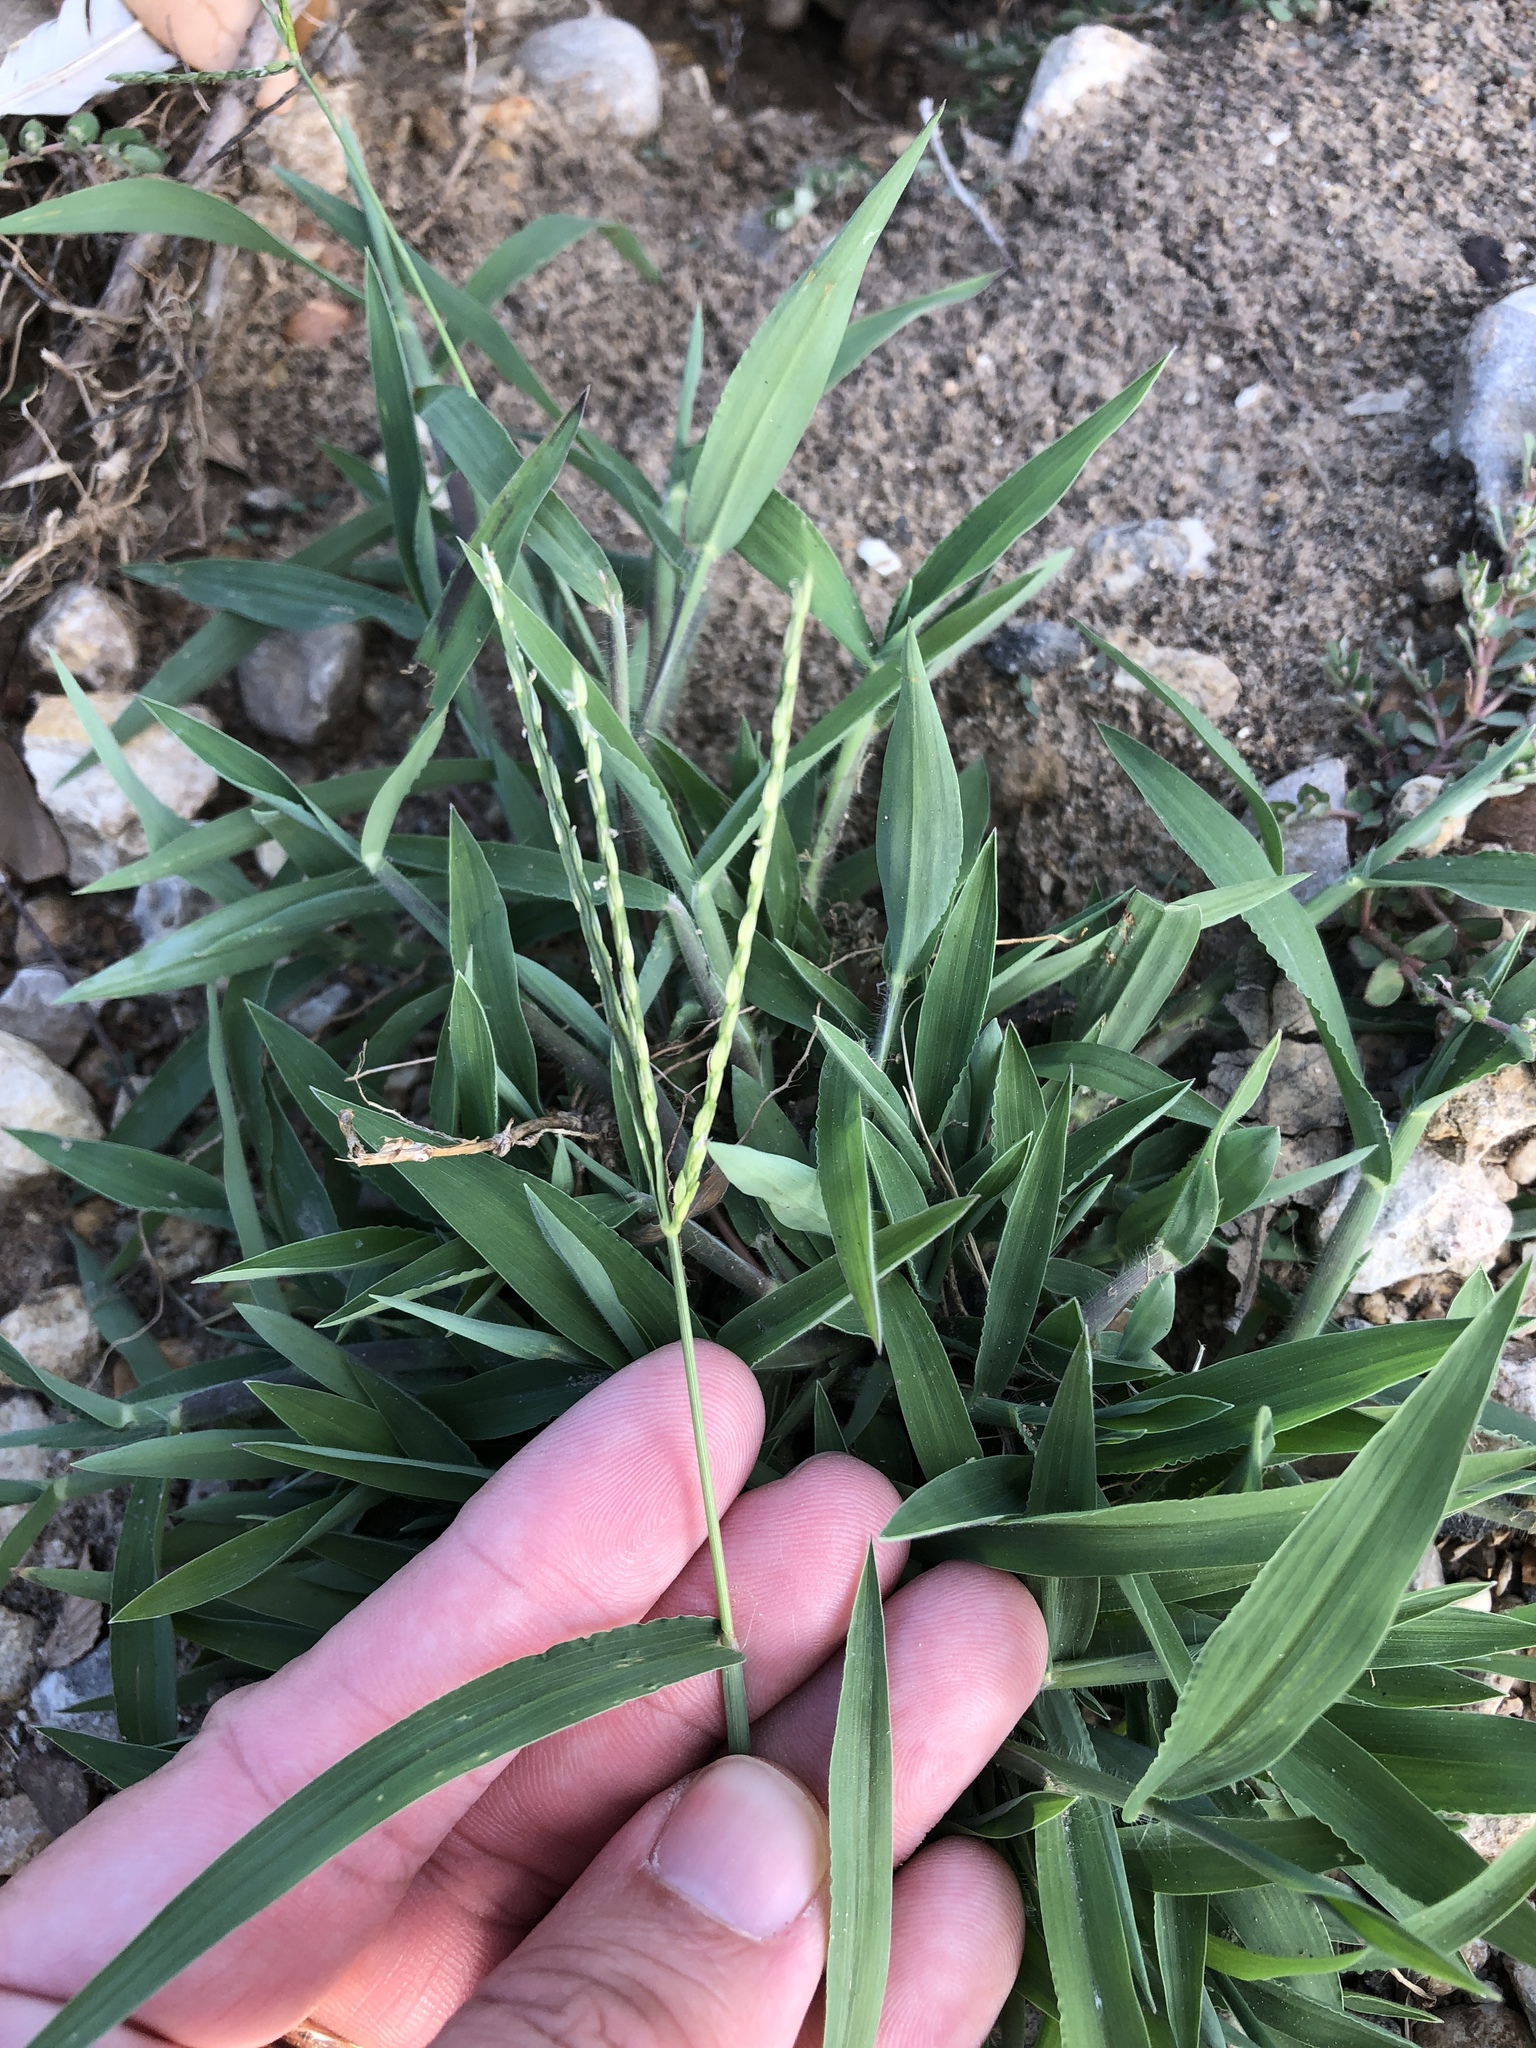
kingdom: Plantae
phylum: Tracheophyta
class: Liliopsida
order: Poales
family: Poaceae
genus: Digitaria
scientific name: Digitaria ciliaris
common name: Tropical finger-grass
